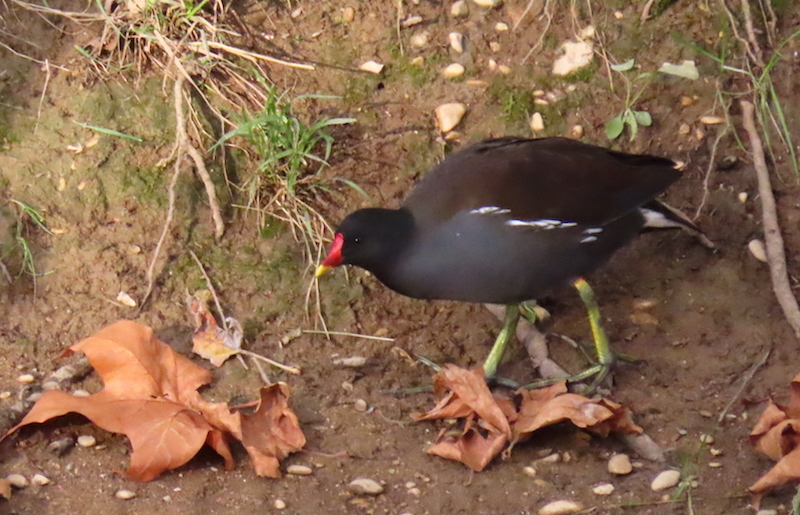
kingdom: Animalia
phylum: Chordata
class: Aves
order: Gruiformes
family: Rallidae
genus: Gallinula
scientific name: Gallinula chloropus
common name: Common moorhen
